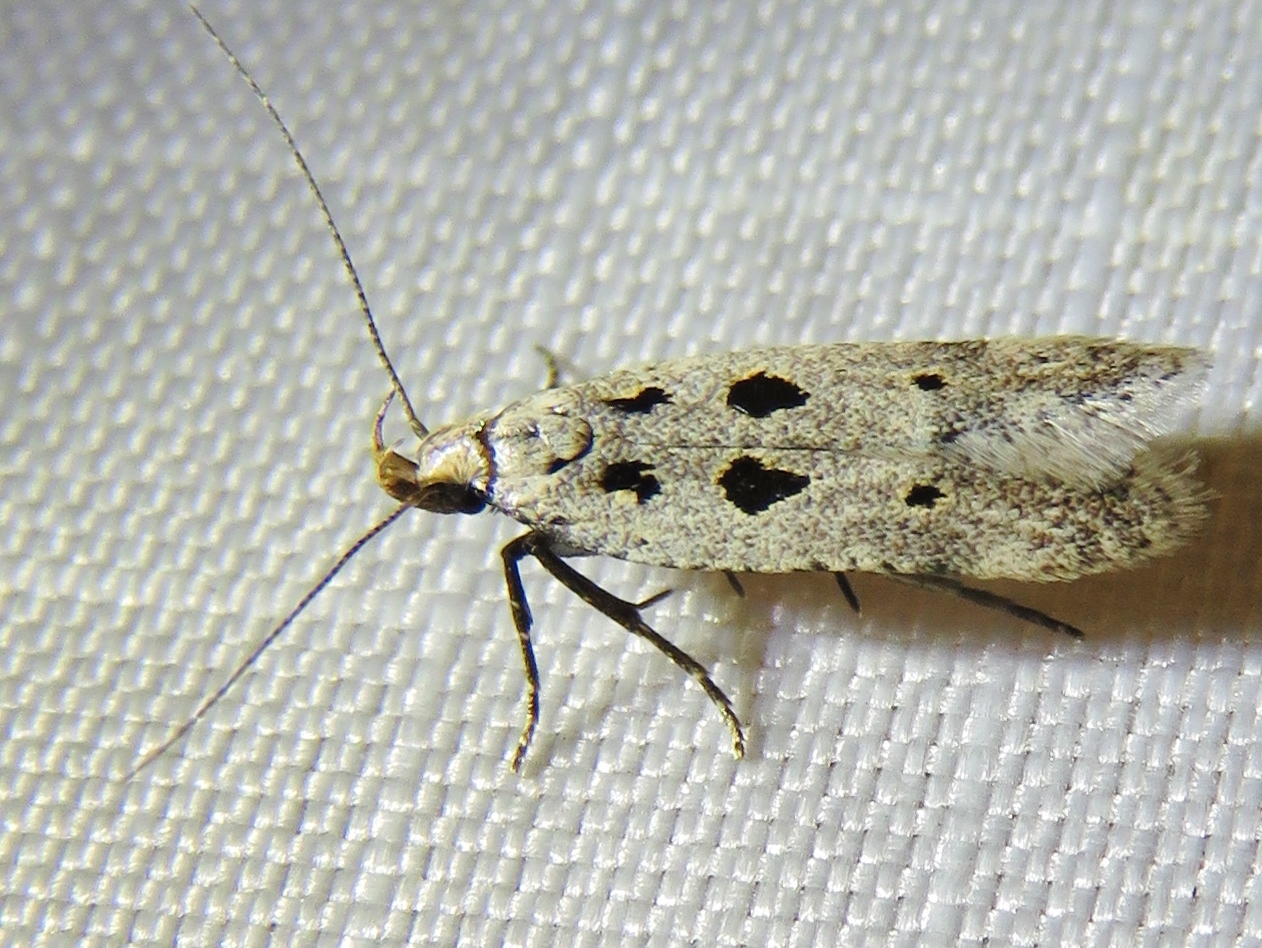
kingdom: Animalia
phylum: Arthropoda
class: Insecta
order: Lepidoptera
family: Gelechiidae
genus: Deltophora
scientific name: Deltophora sella
